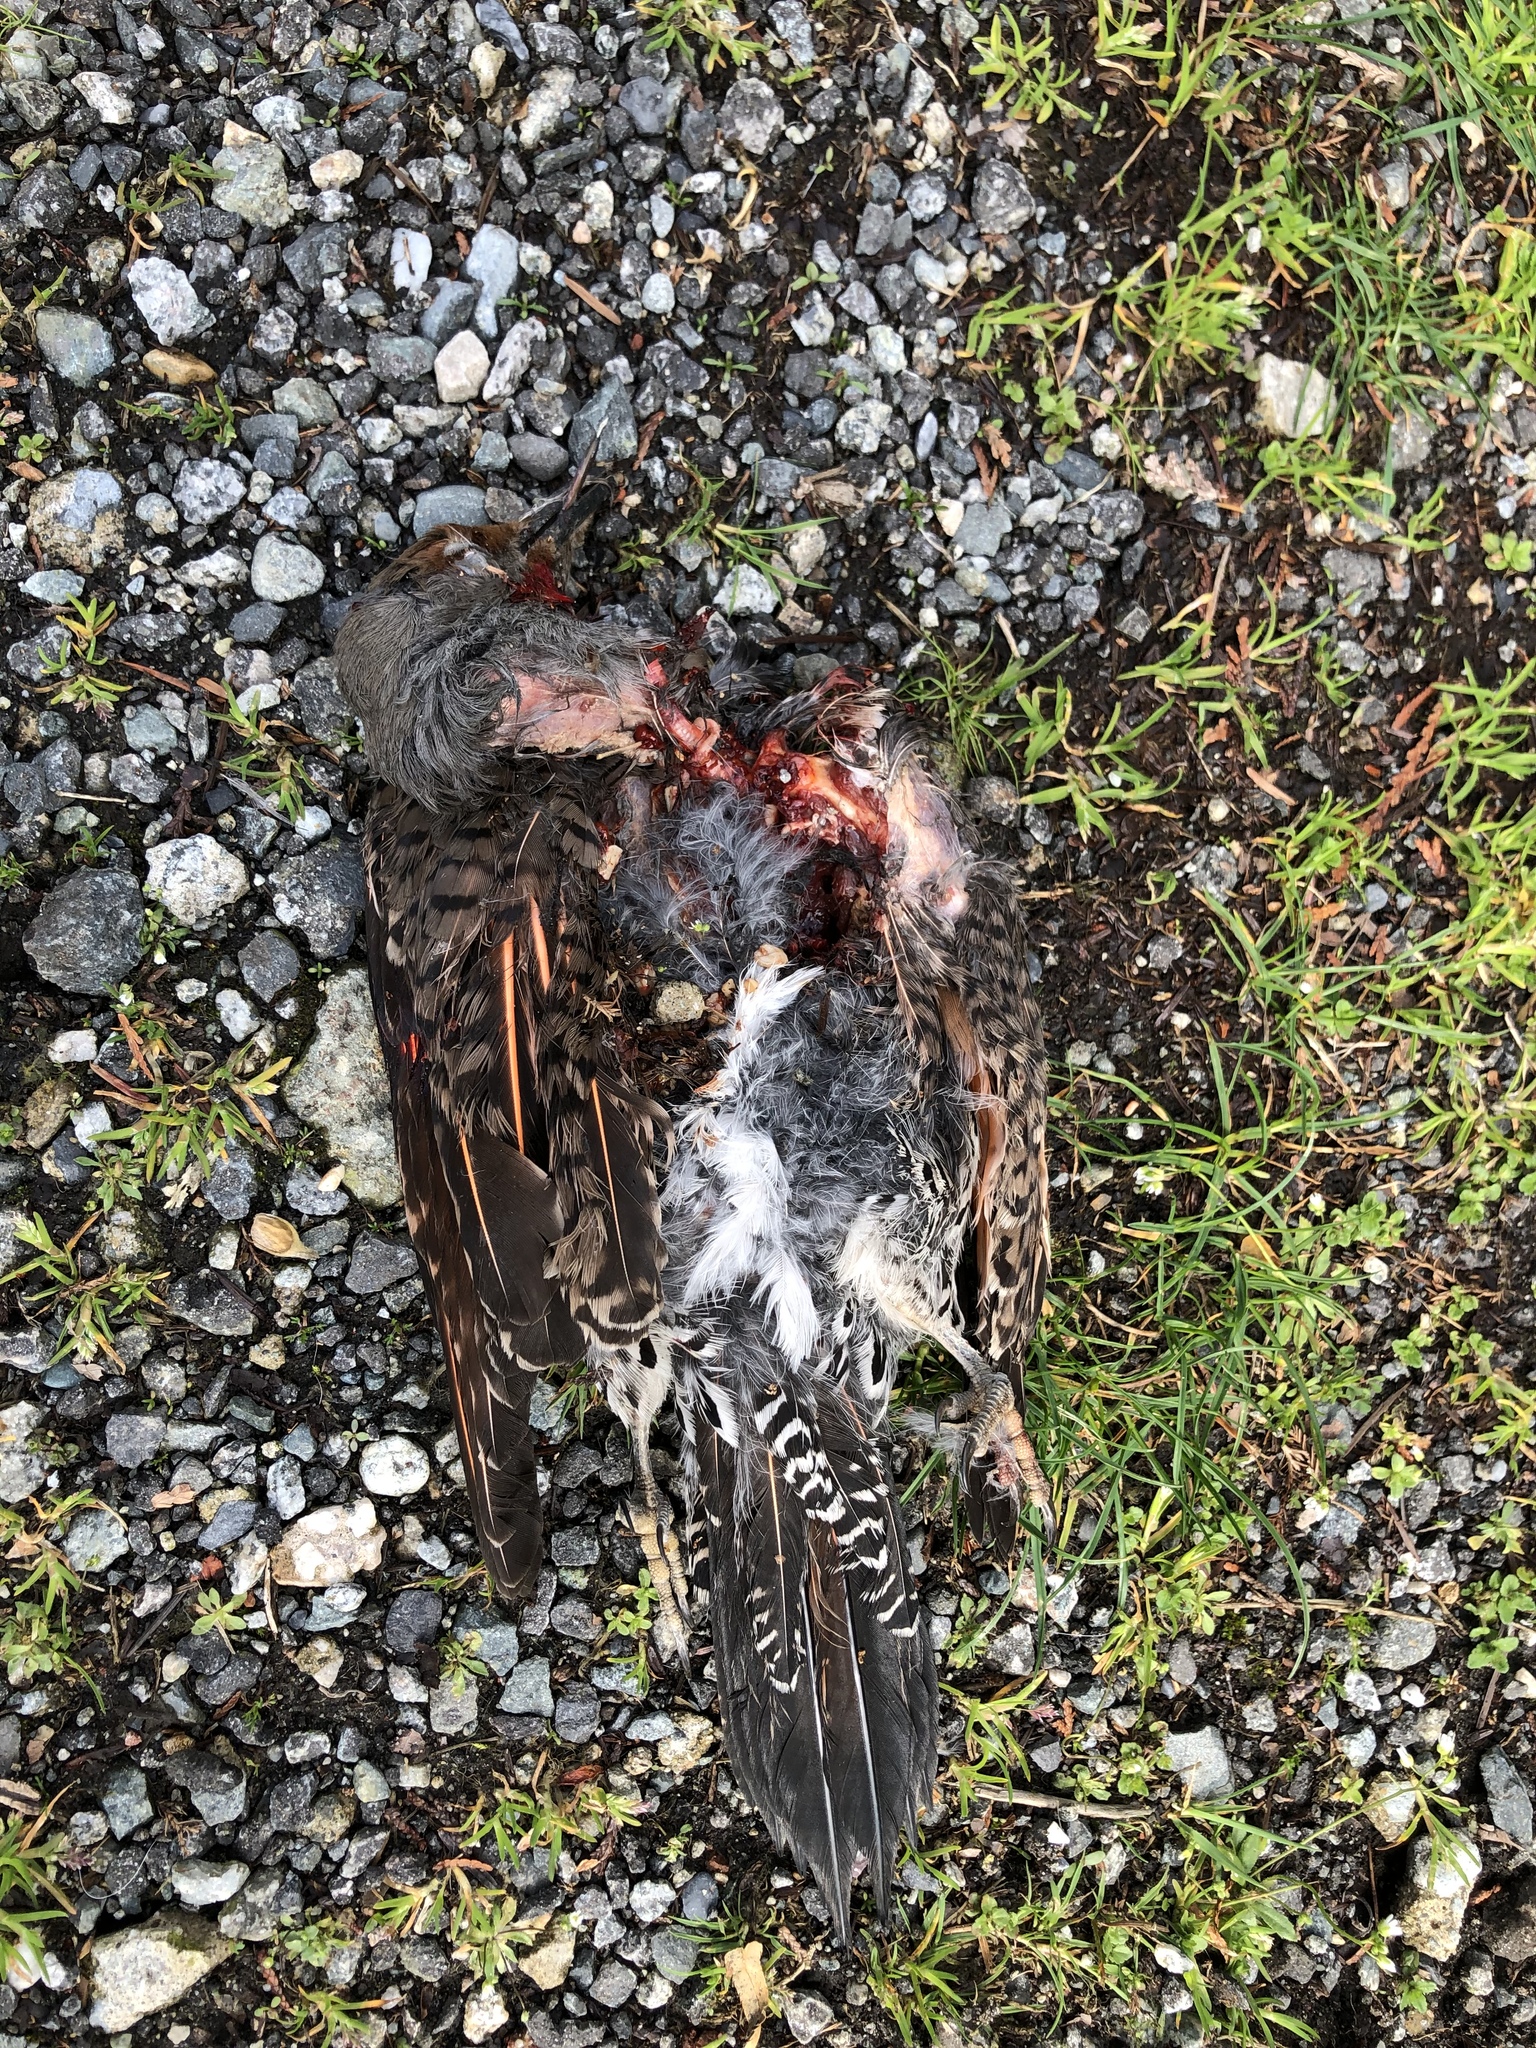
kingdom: Animalia
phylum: Chordata
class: Aves
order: Piciformes
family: Picidae
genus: Colaptes
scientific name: Colaptes auratus
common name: Northern flicker
